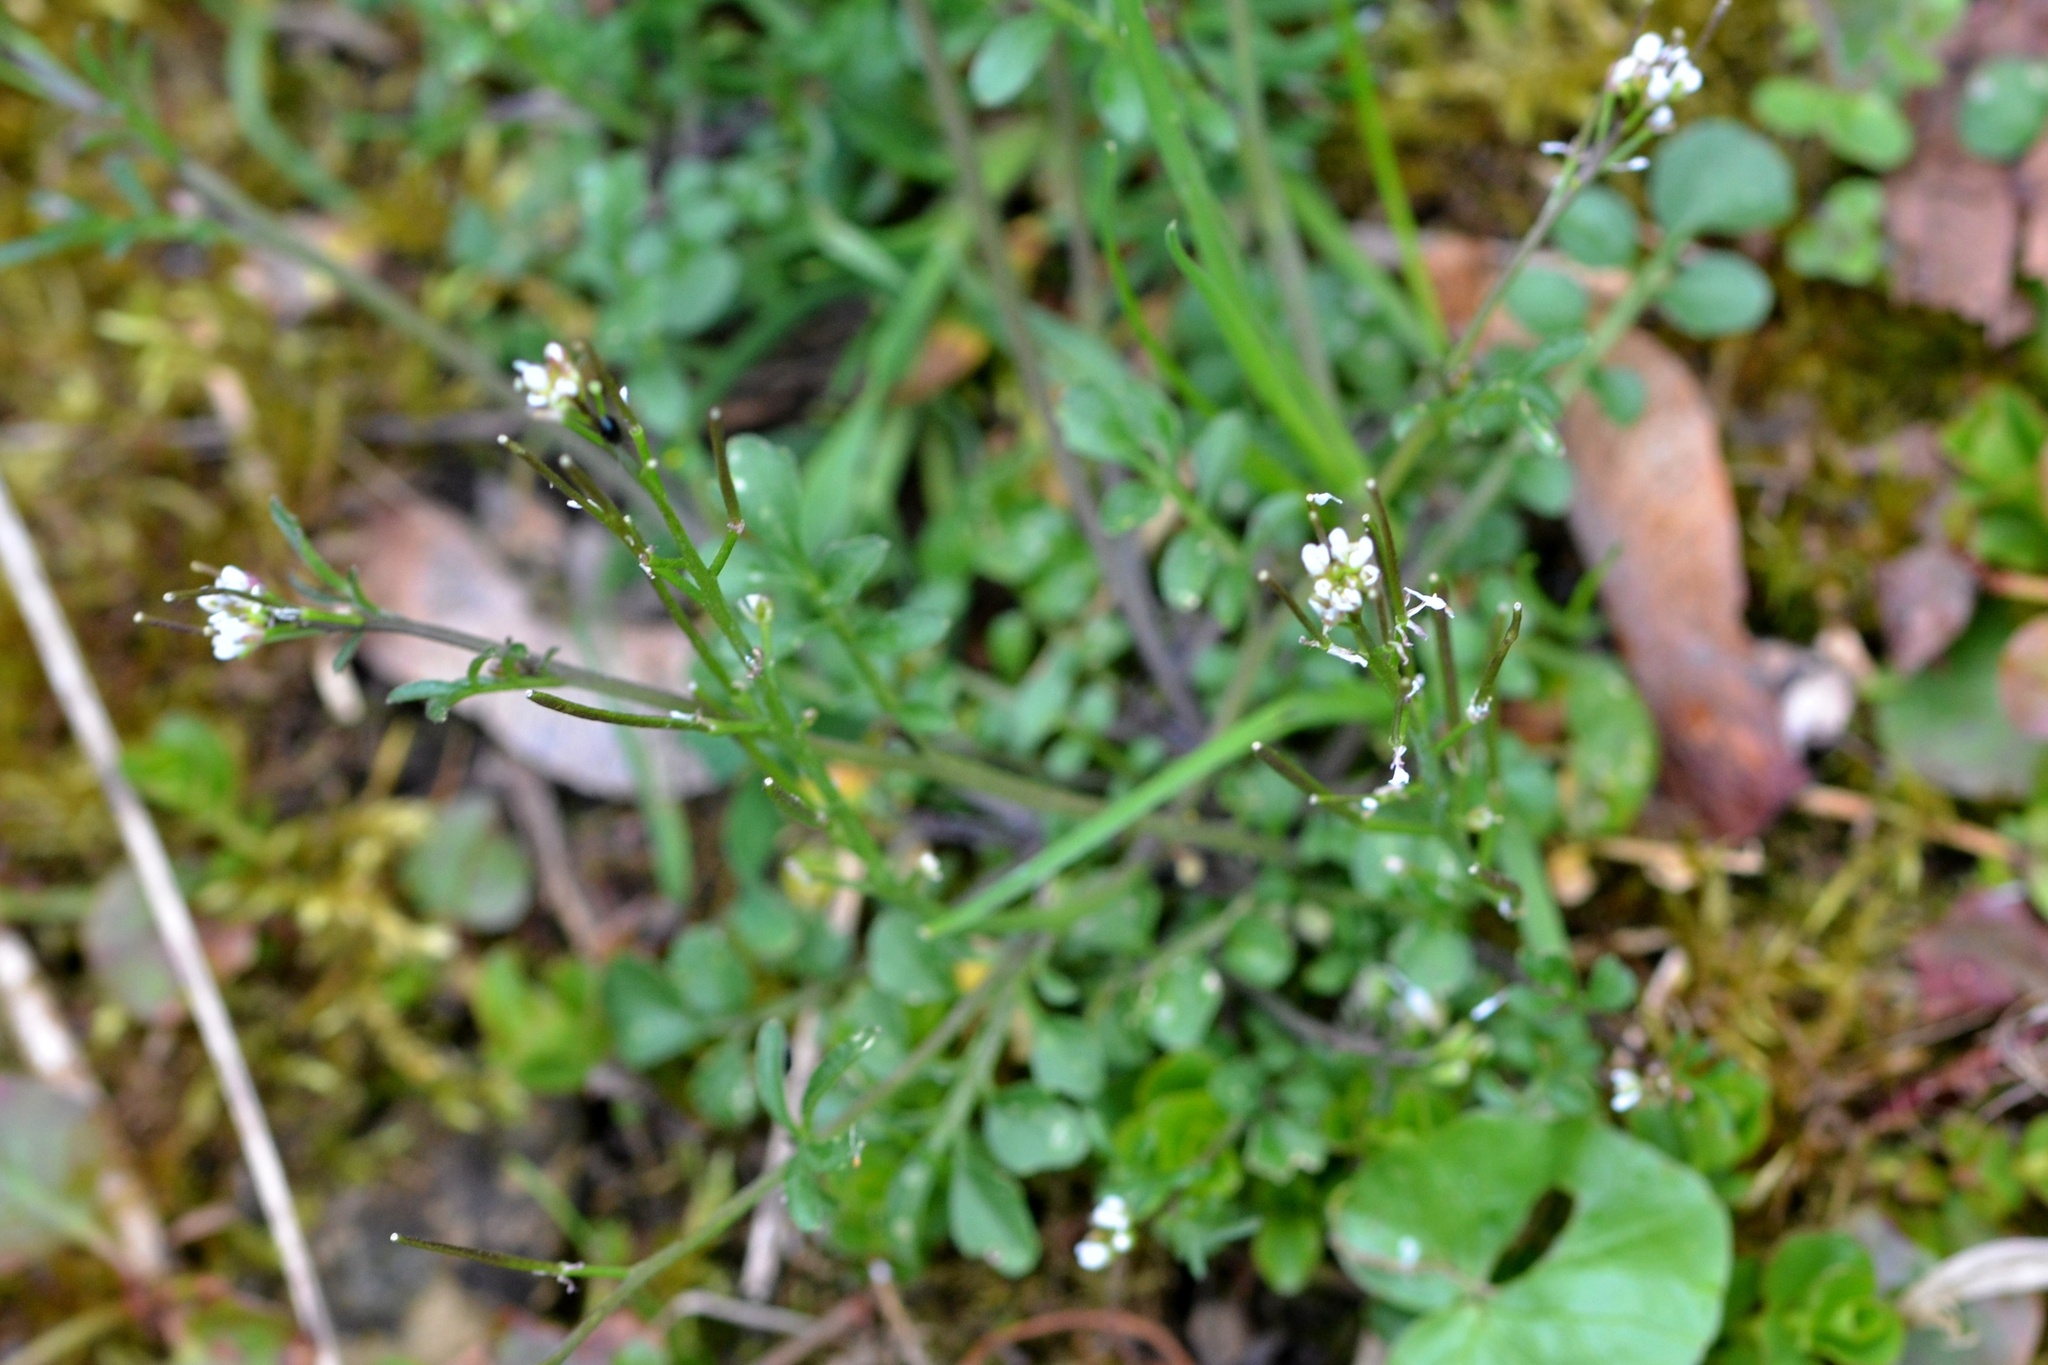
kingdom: Plantae
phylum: Tracheophyta
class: Magnoliopsida
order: Brassicales
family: Brassicaceae
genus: Cardamine
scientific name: Cardamine hirsuta
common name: Hairy bittercress
